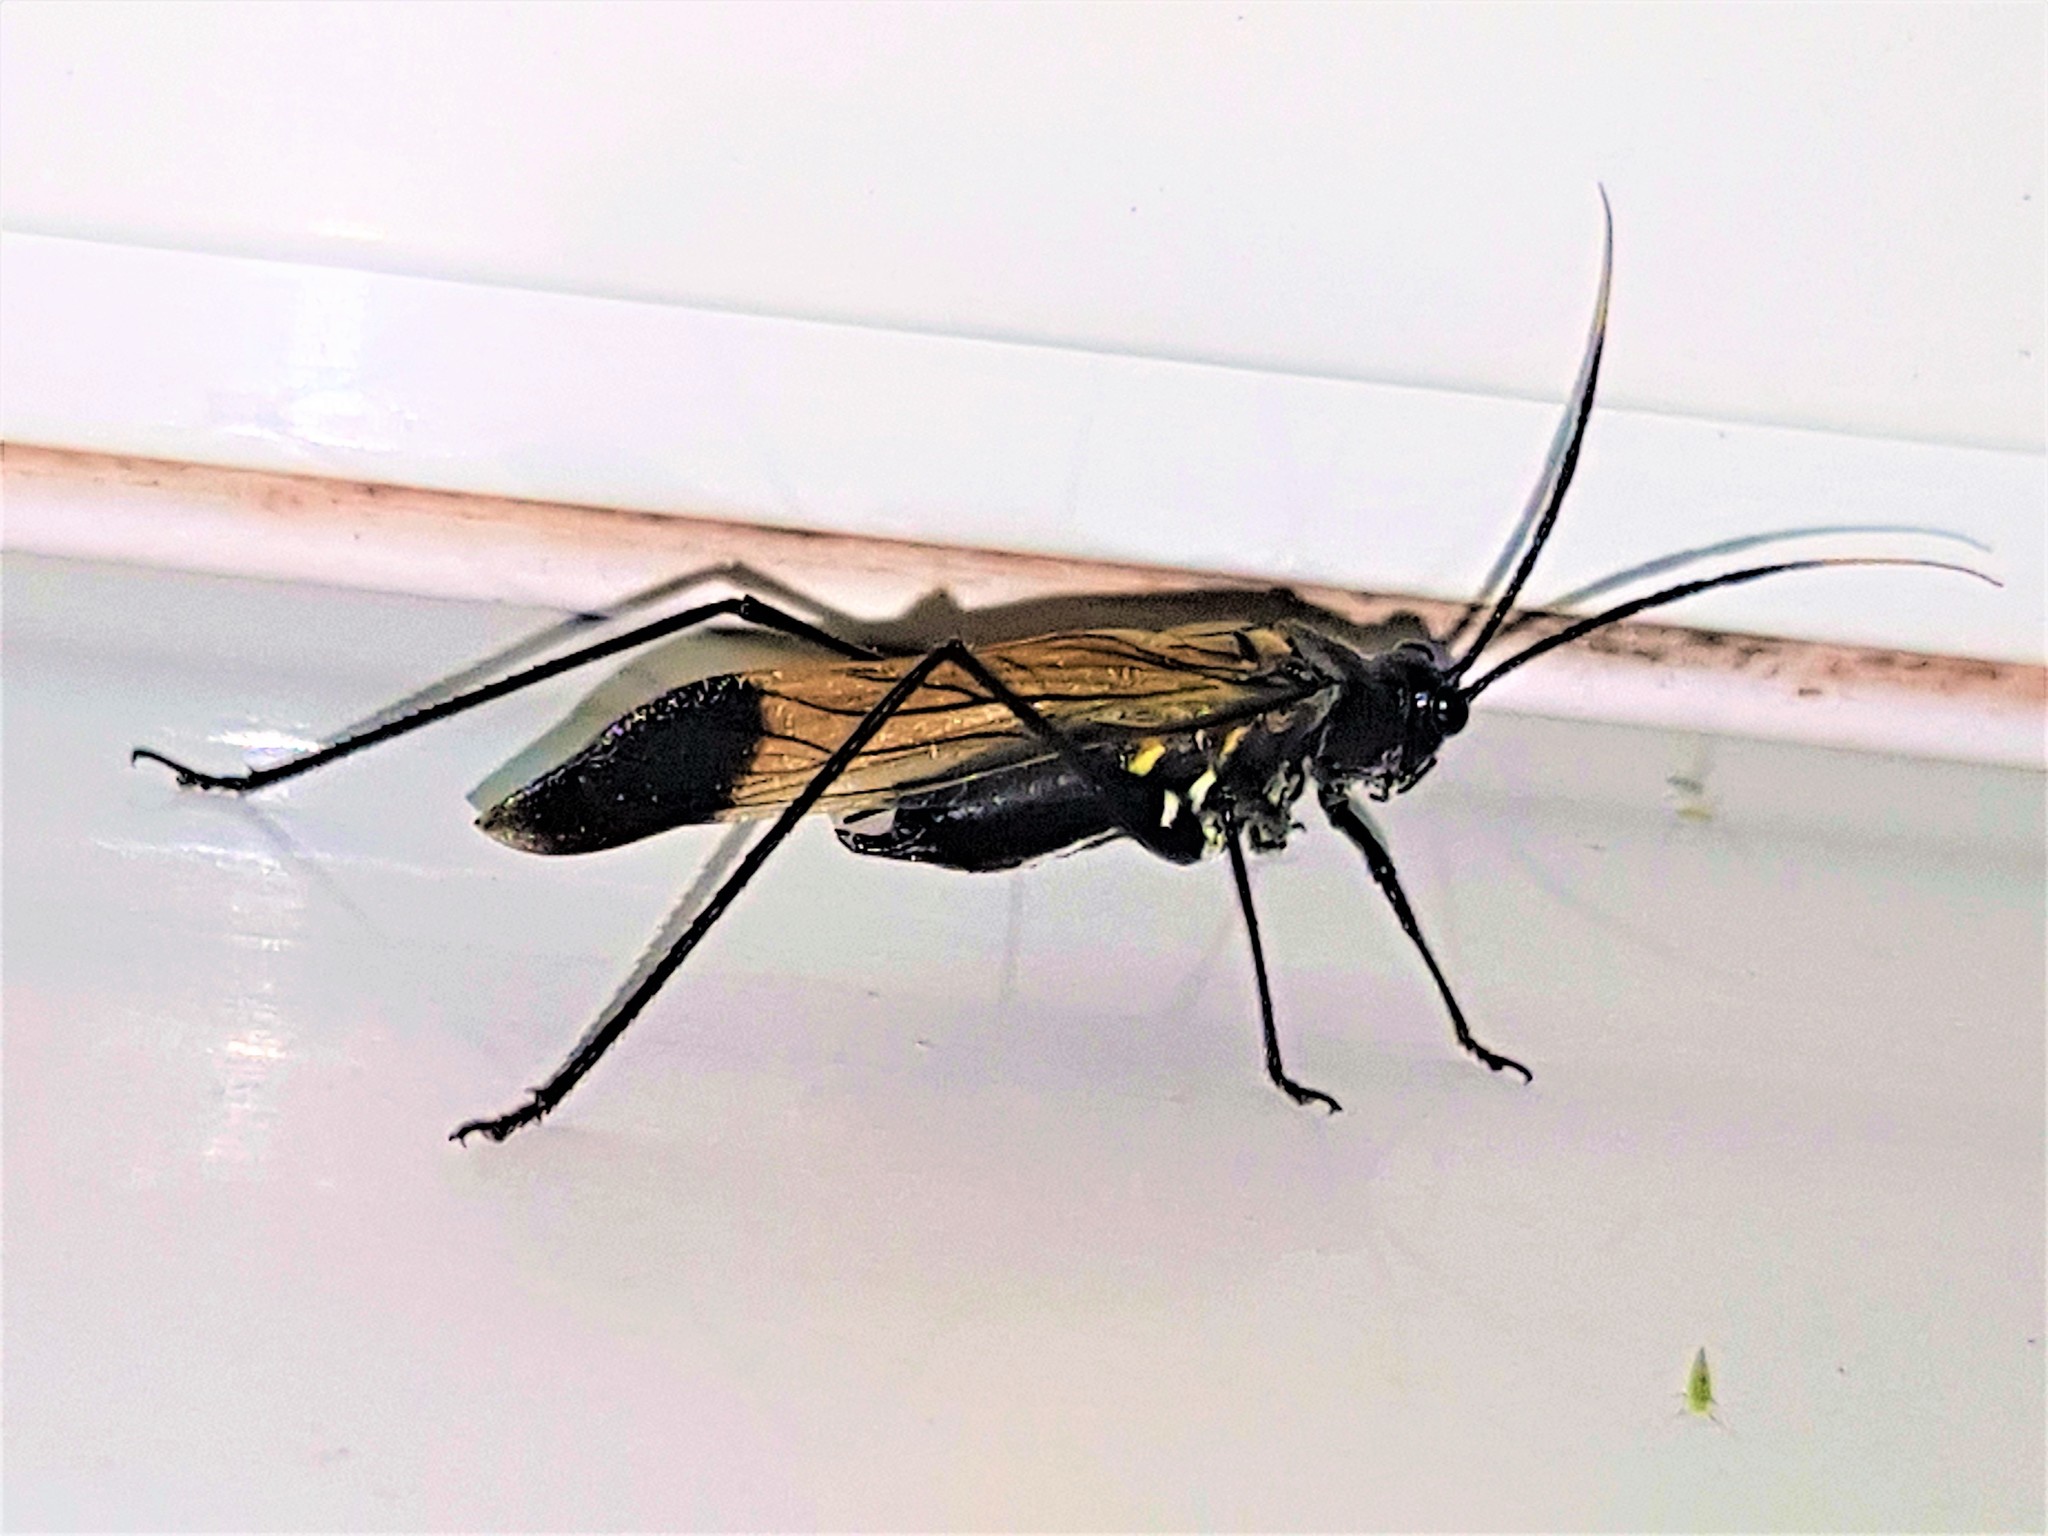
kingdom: Animalia
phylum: Arthropoda
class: Insecta
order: Orthoptera
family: Tettigoniidae
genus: Aganacris
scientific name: Aganacris nitida
